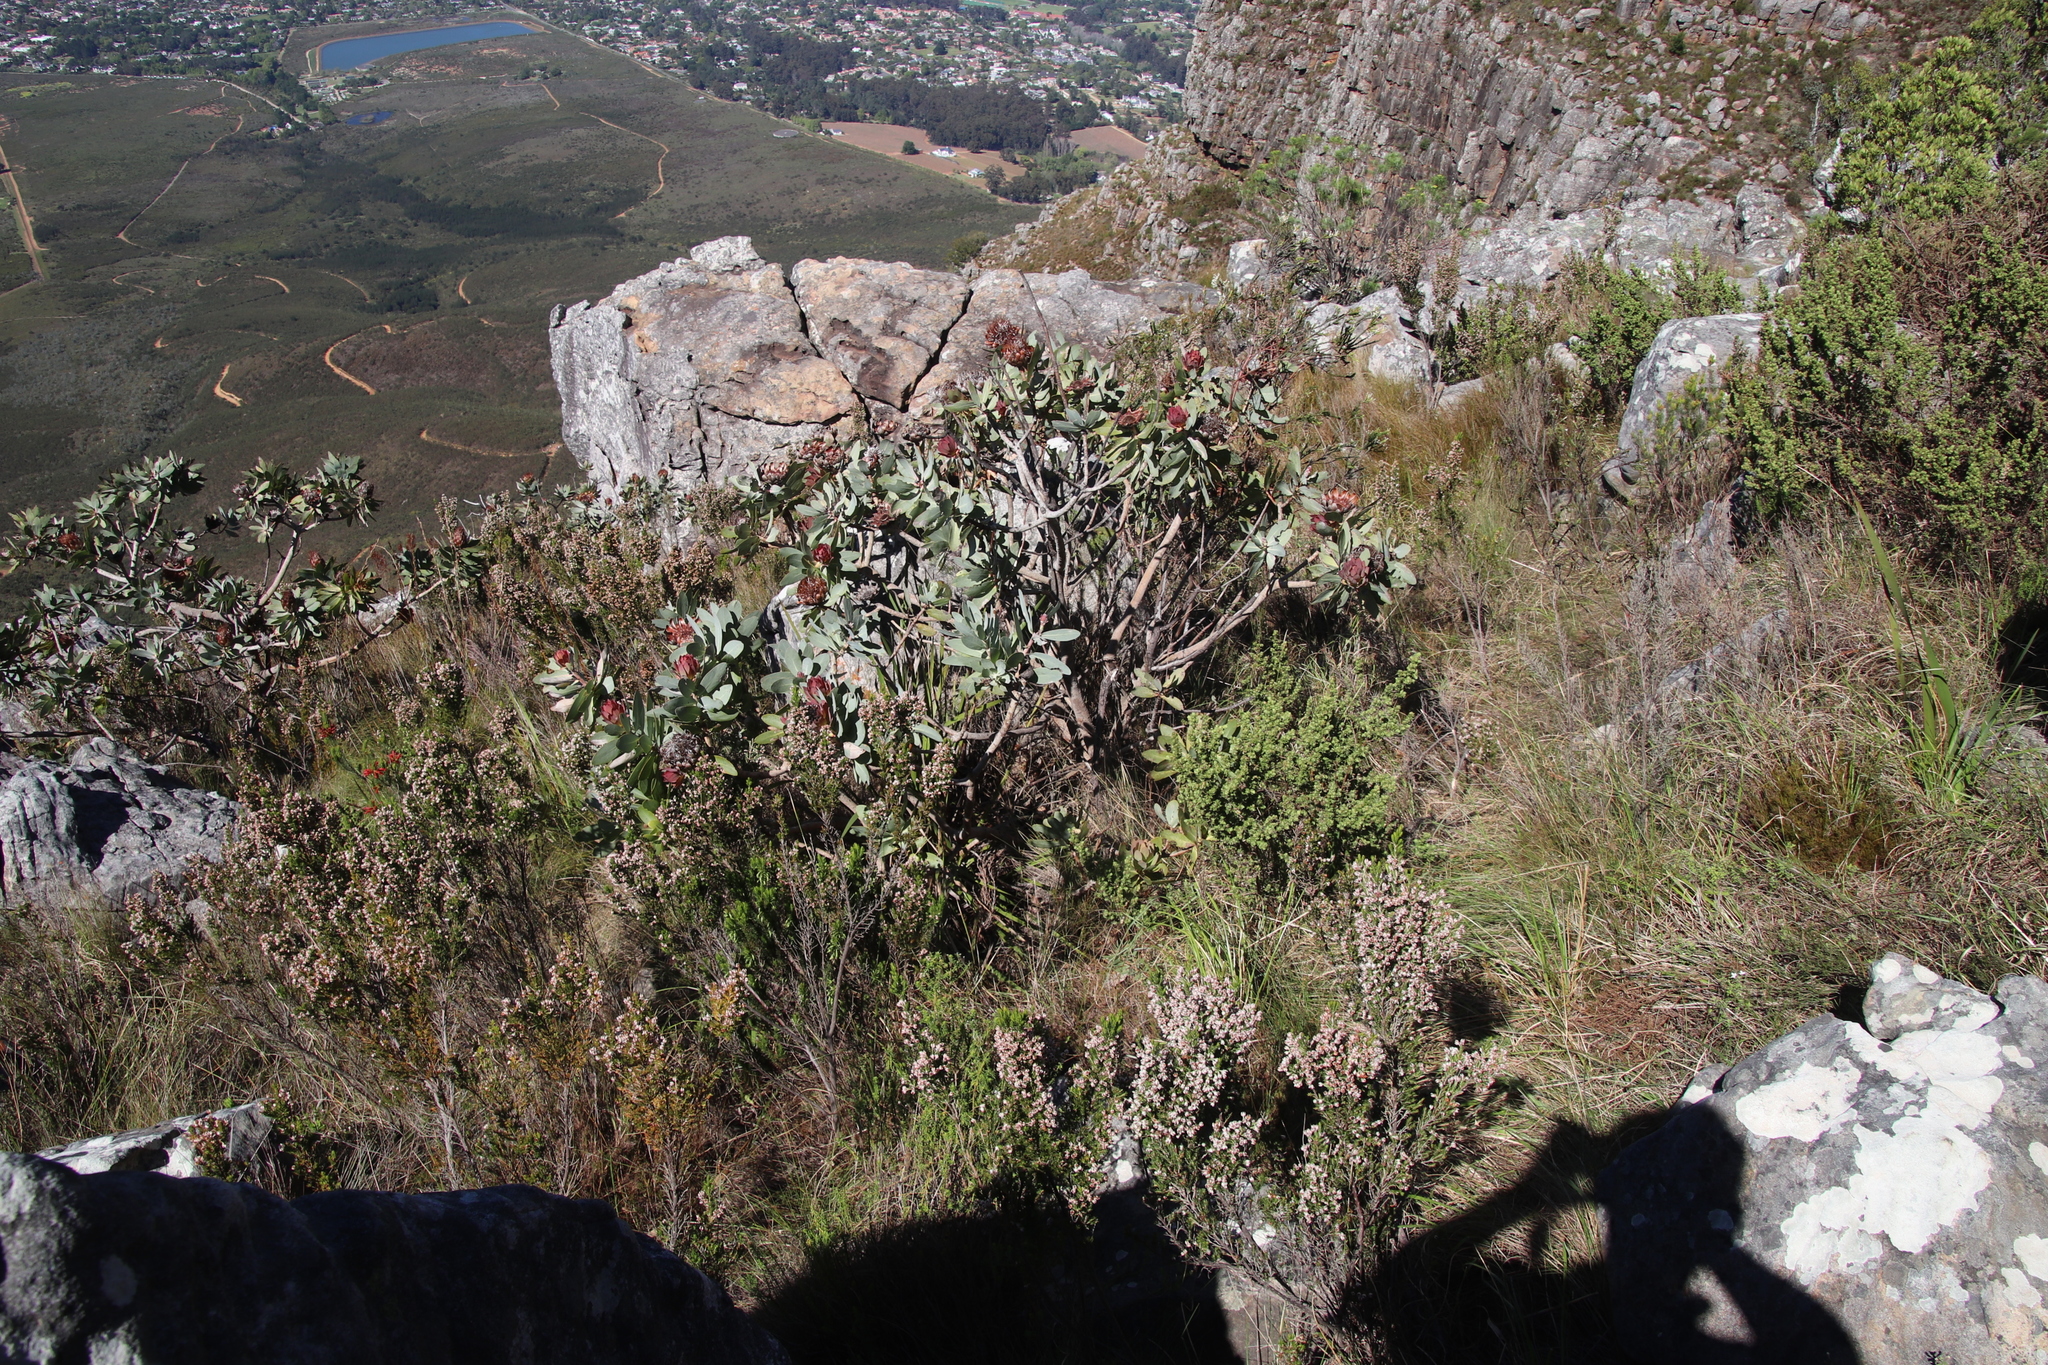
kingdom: Plantae
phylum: Tracheophyta
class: Magnoliopsida
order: Proteales
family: Proteaceae
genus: Protea
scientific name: Protea nitida
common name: Tree protea
